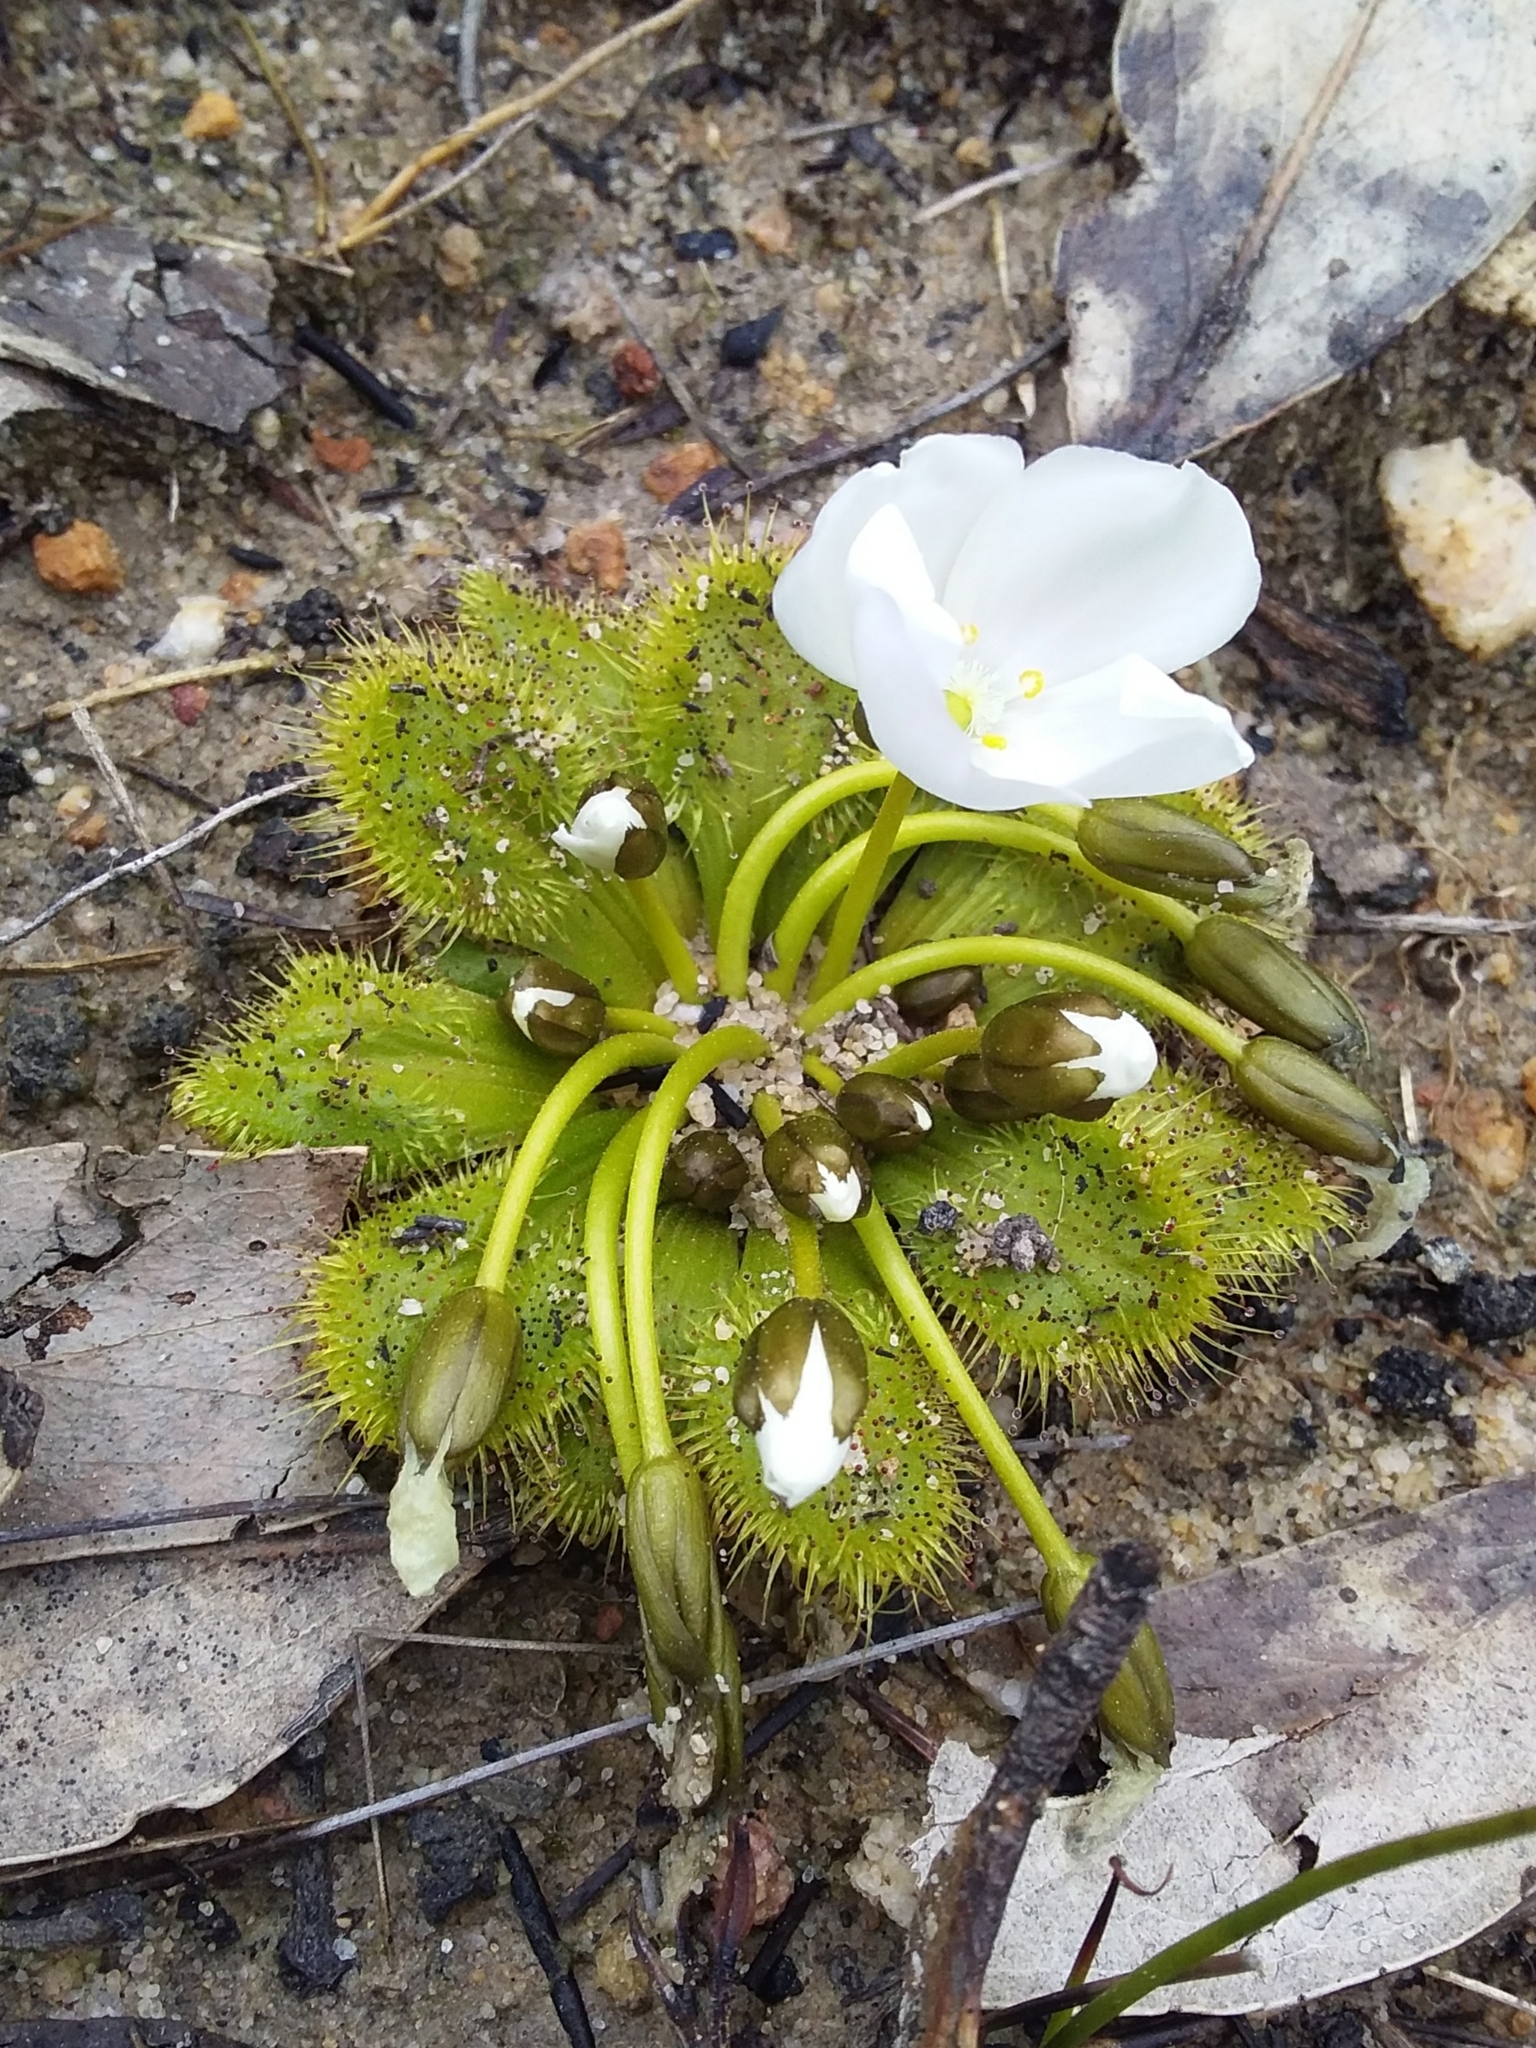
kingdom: Plantae
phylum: Tracheophyta
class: Magnoliopsida
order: Caryophyllales
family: Droseraceae
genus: Drosera
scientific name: Drosera whittakeri
